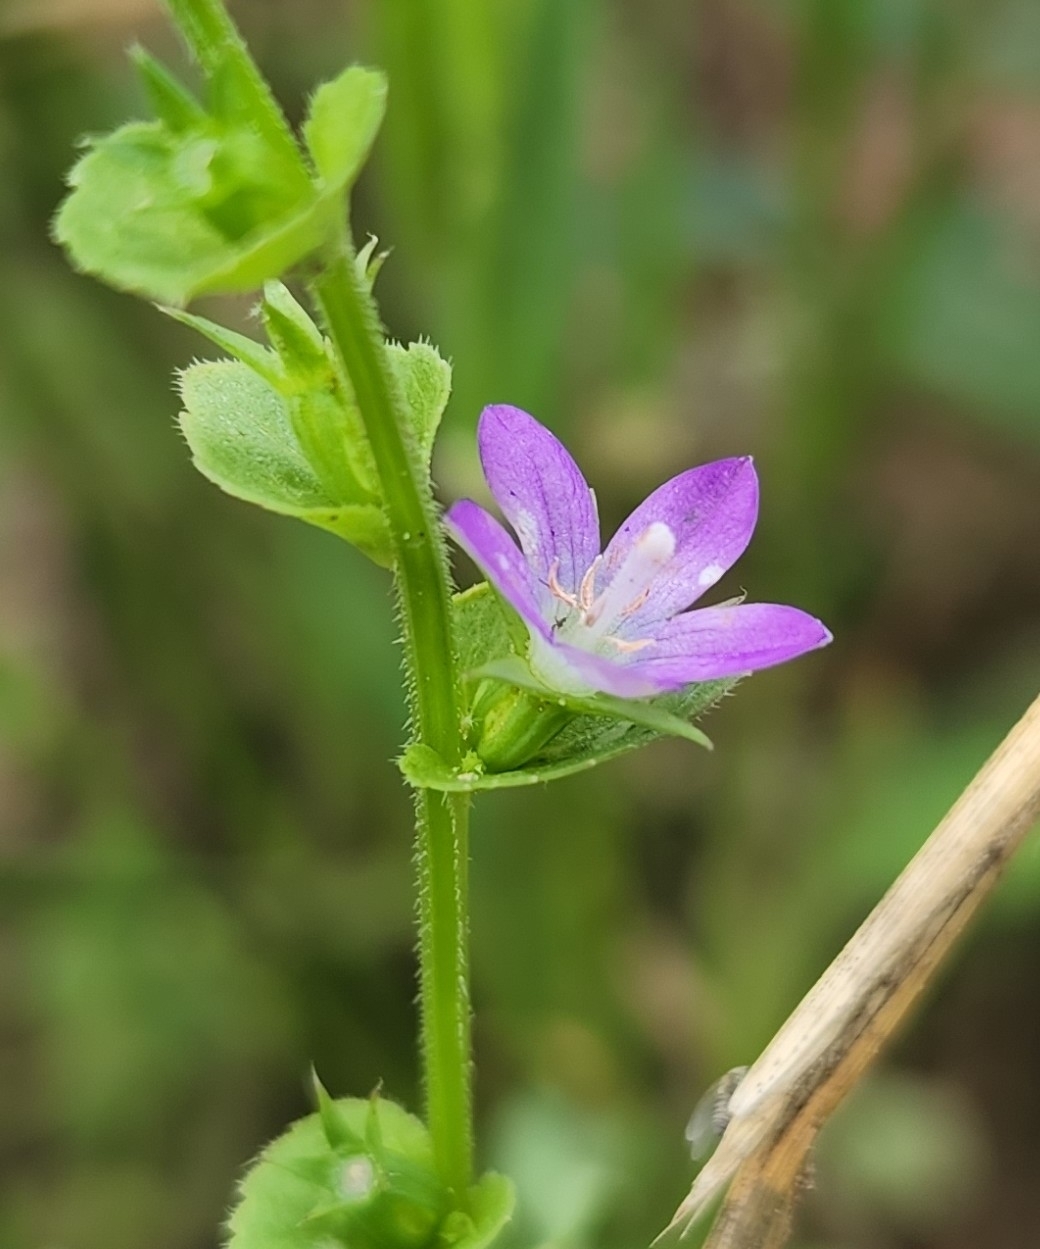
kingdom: Plantae
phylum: Tracheophyta
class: Magnoliopsida
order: Asterales
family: Campanulaceae
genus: Triodanis
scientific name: Triodanis perfoliata
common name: Clasping venus' looking-glass
